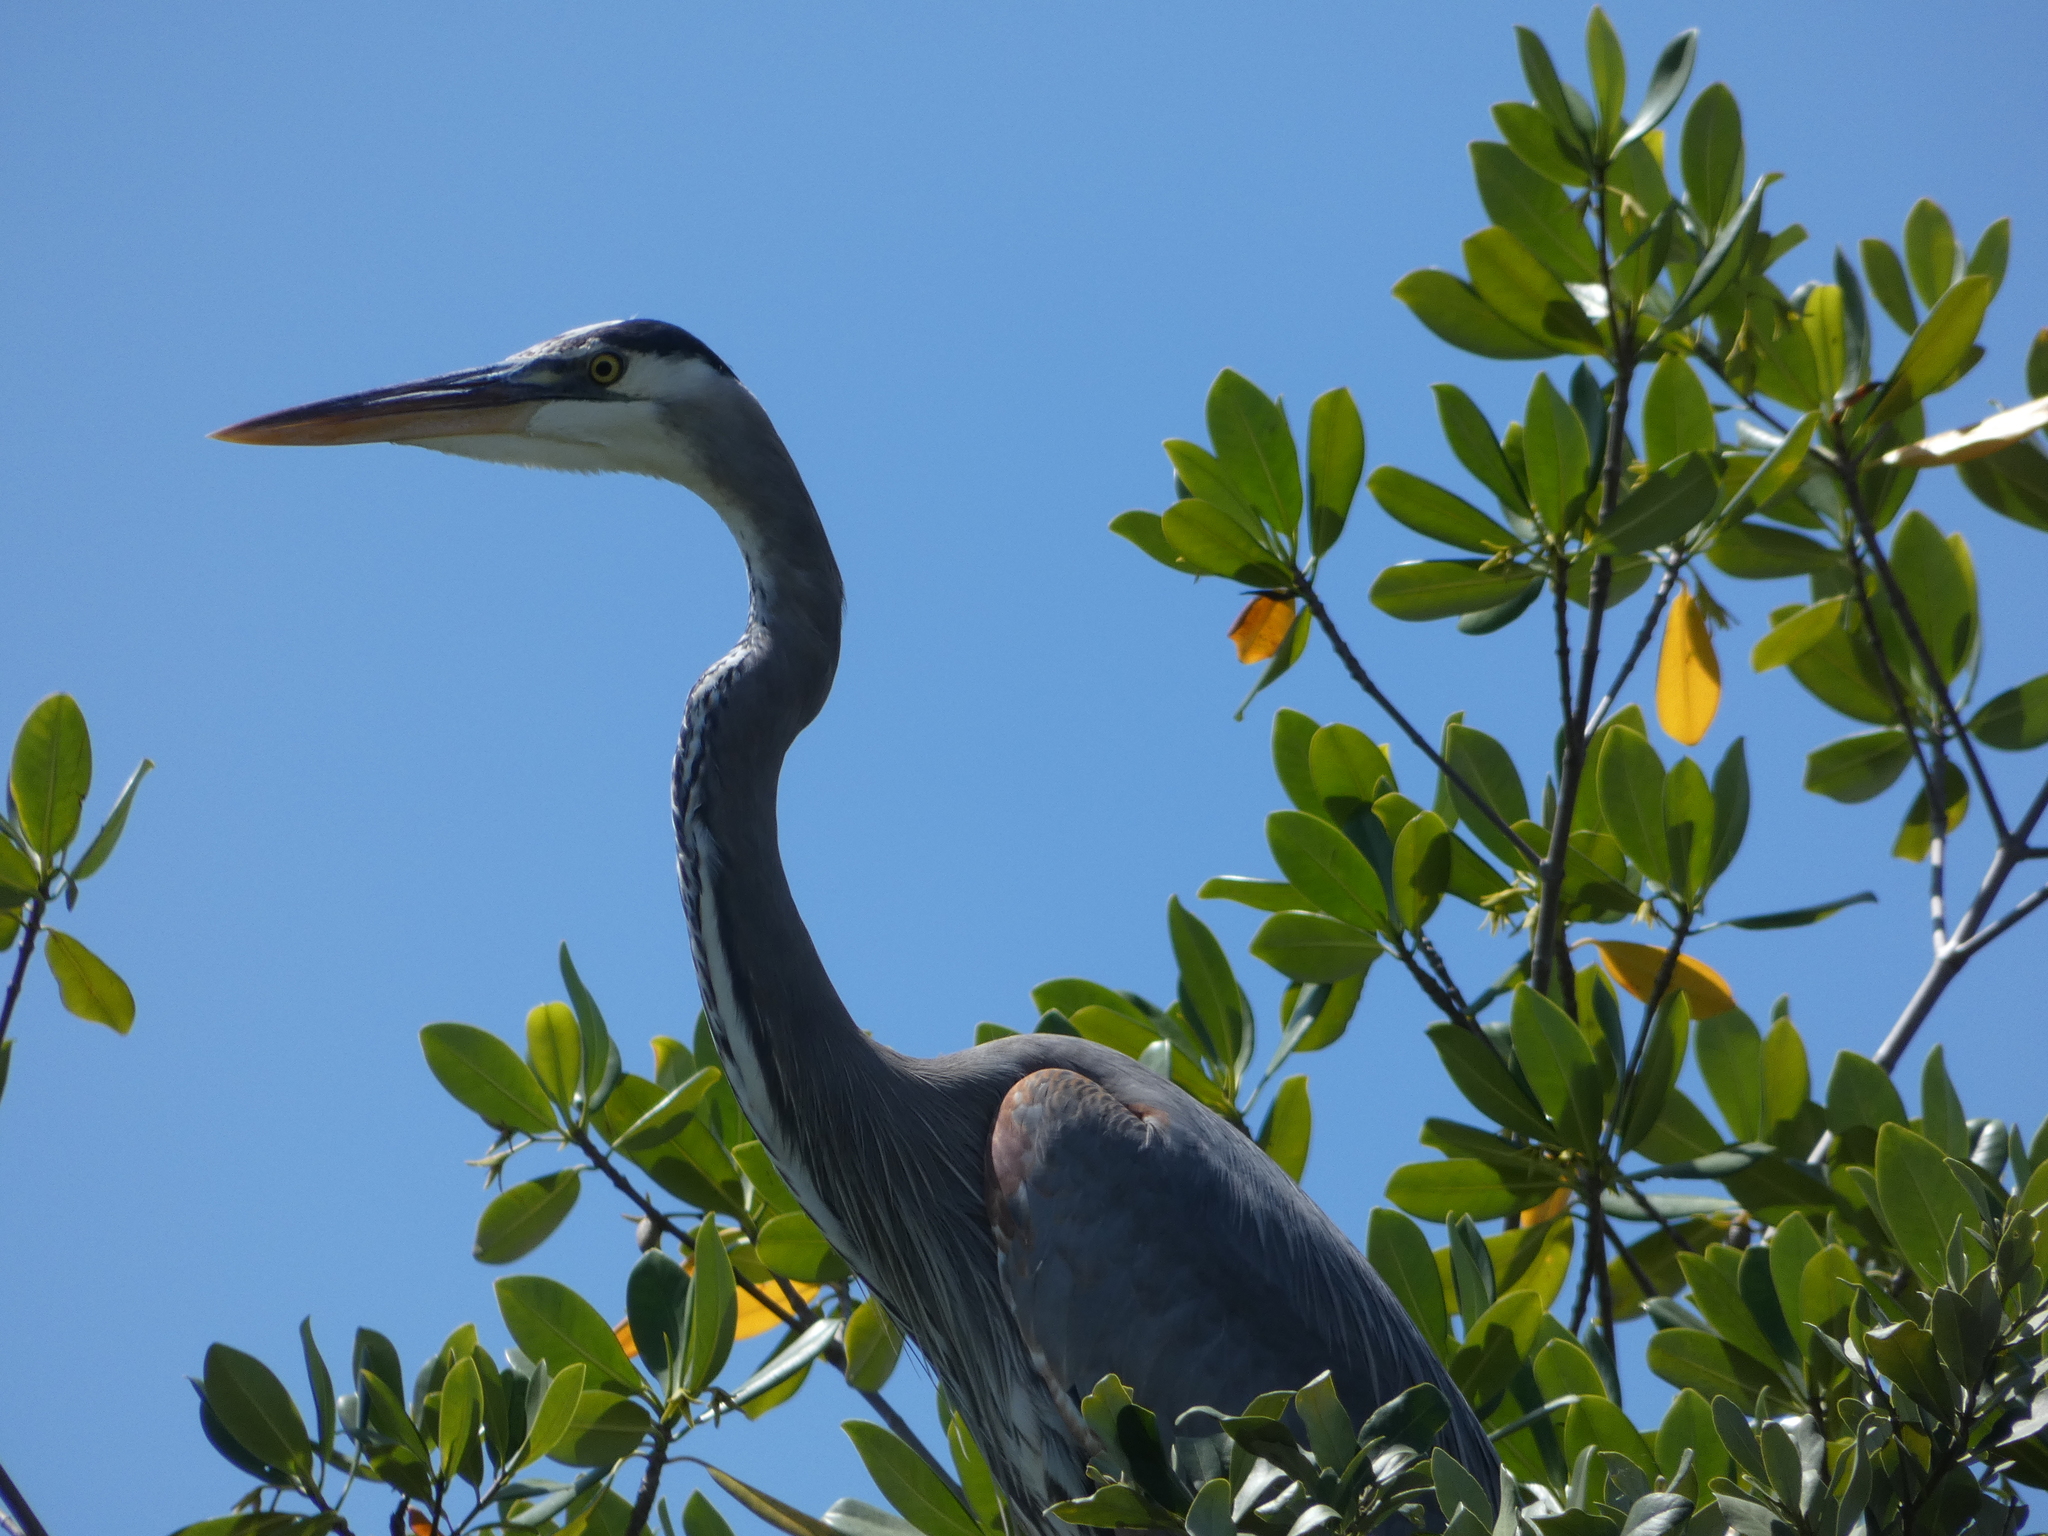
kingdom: Animalia
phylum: Chordata
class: Aves
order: Pelecaniformes
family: Ardeidae
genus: Ardea
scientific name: Ardea herodias
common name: Great blue heron
